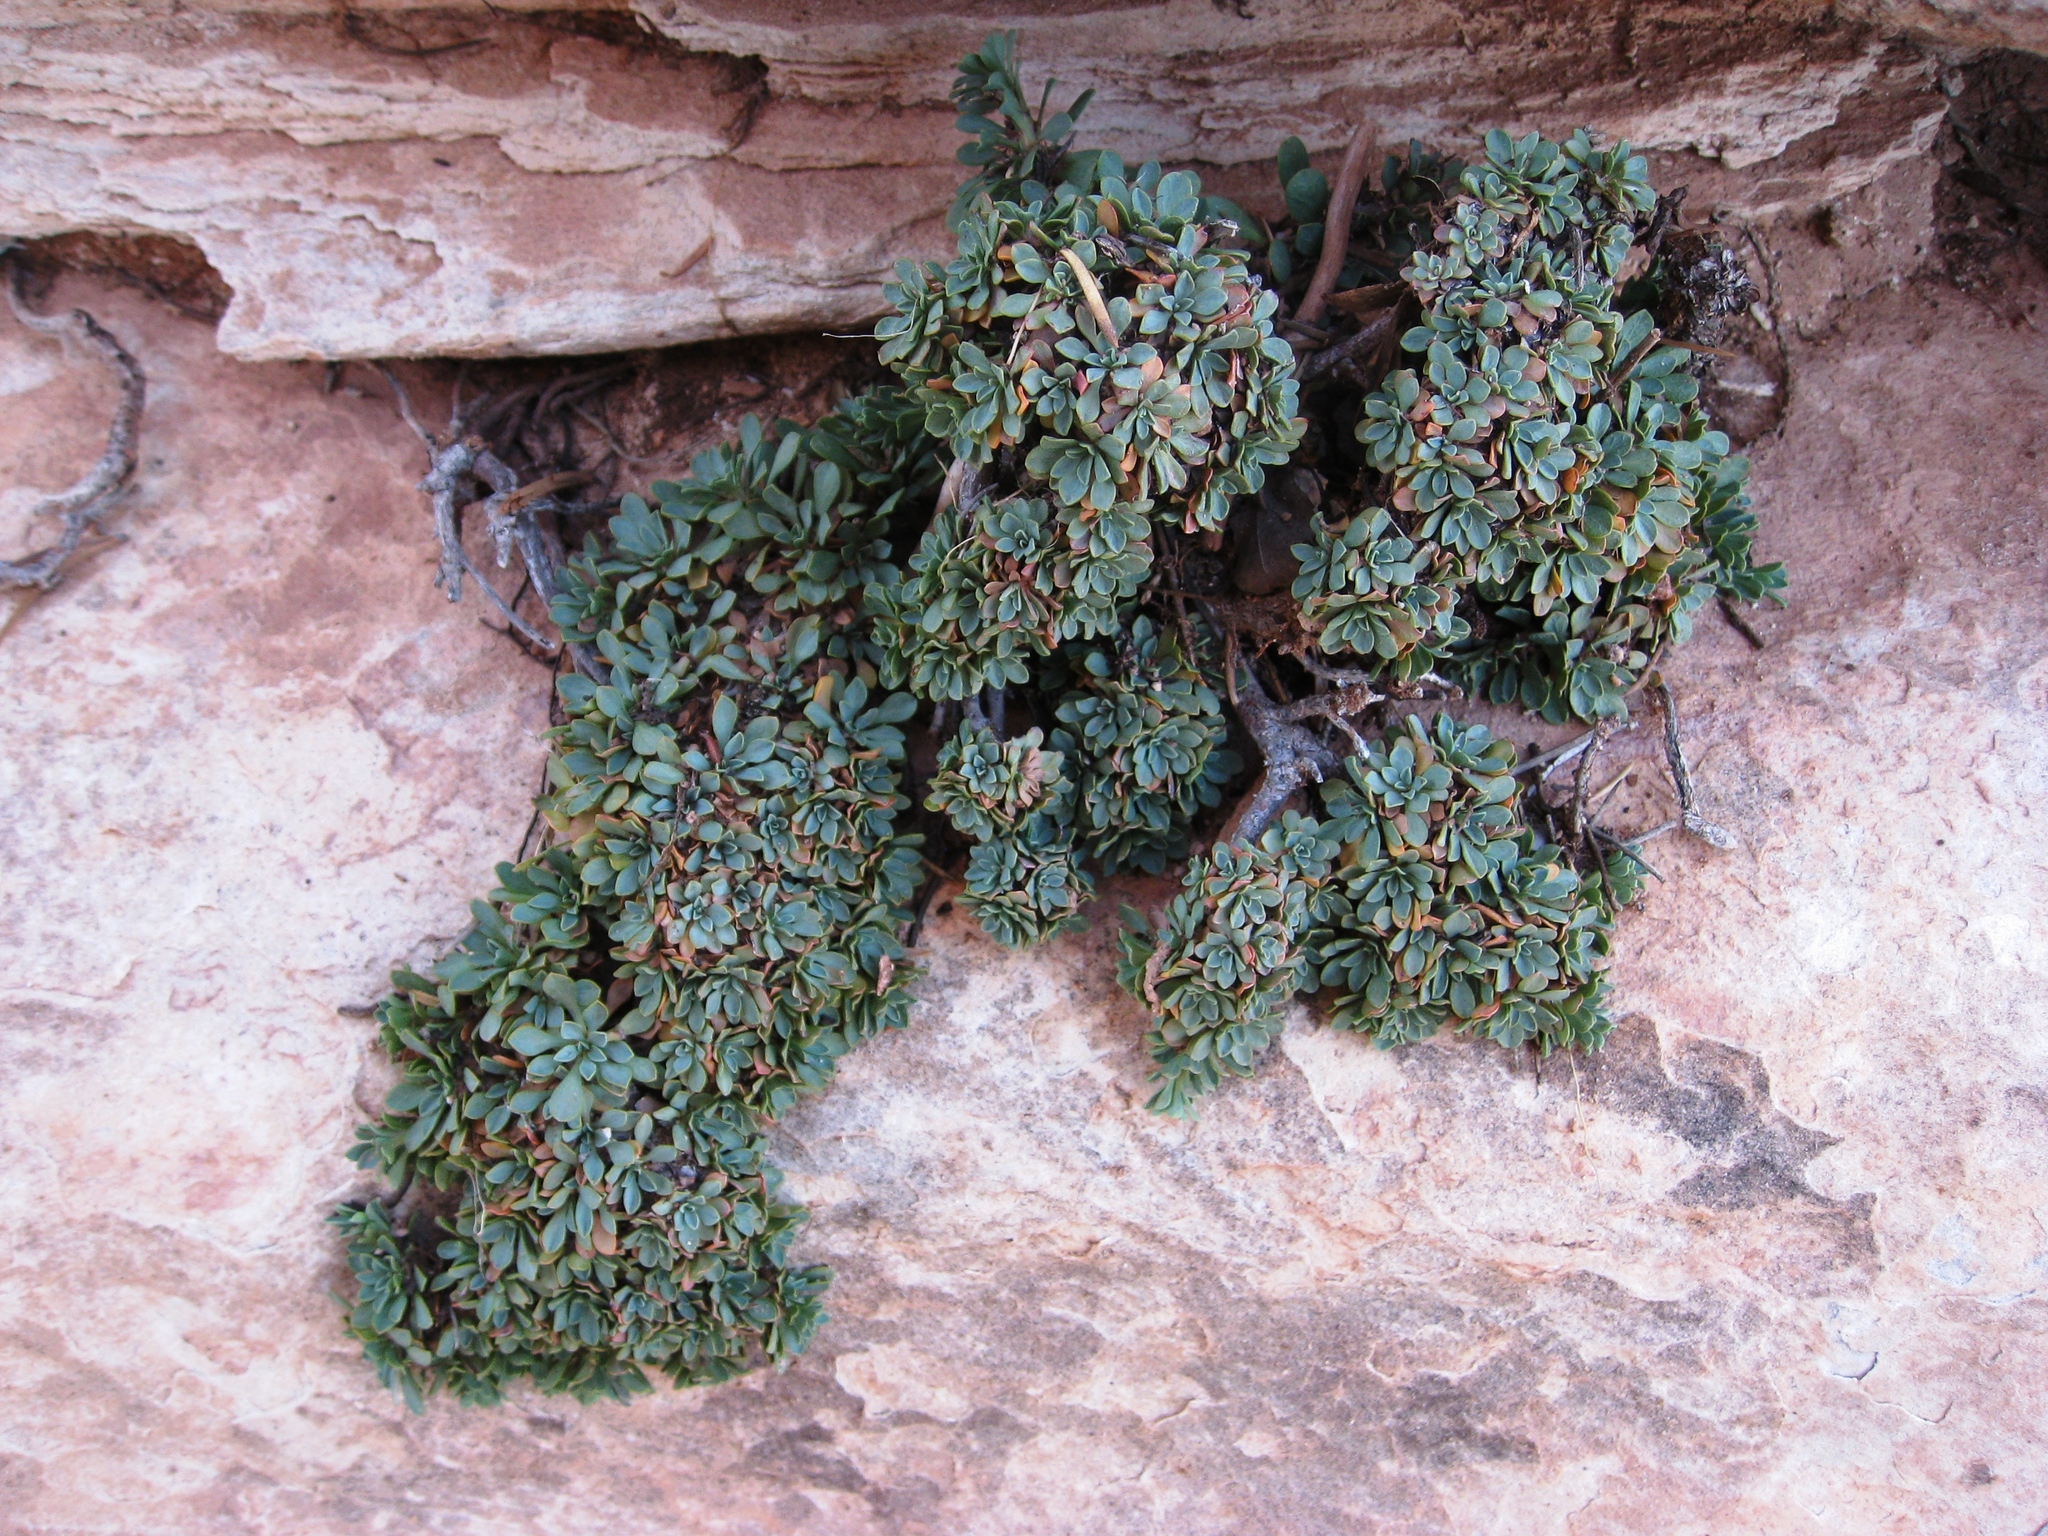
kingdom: Plantae
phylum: Tracheophyta
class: Magnoliopsida
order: Rosales
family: Rosaceae
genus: Petrophytum
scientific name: Petrophytum caespitosum
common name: Mat rockspirea
